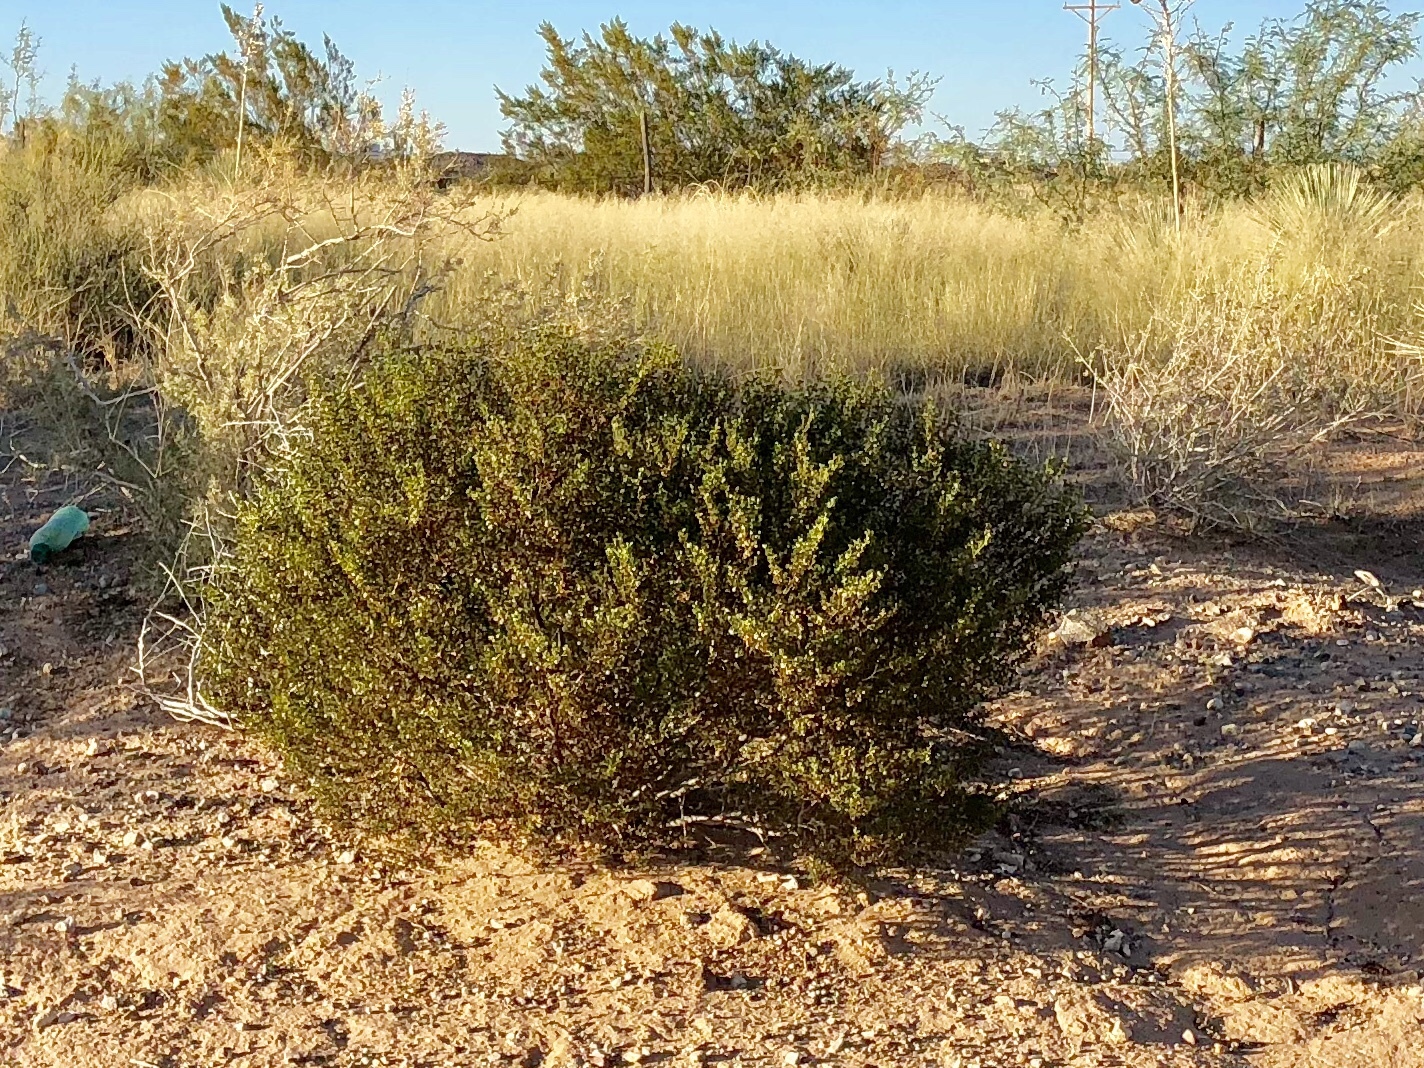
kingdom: Plantae
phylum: Tracheophyta
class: Magnoliopsida
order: Zygophyllales
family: Zygophyllaceae
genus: Larrea
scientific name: Larrea tridentata
